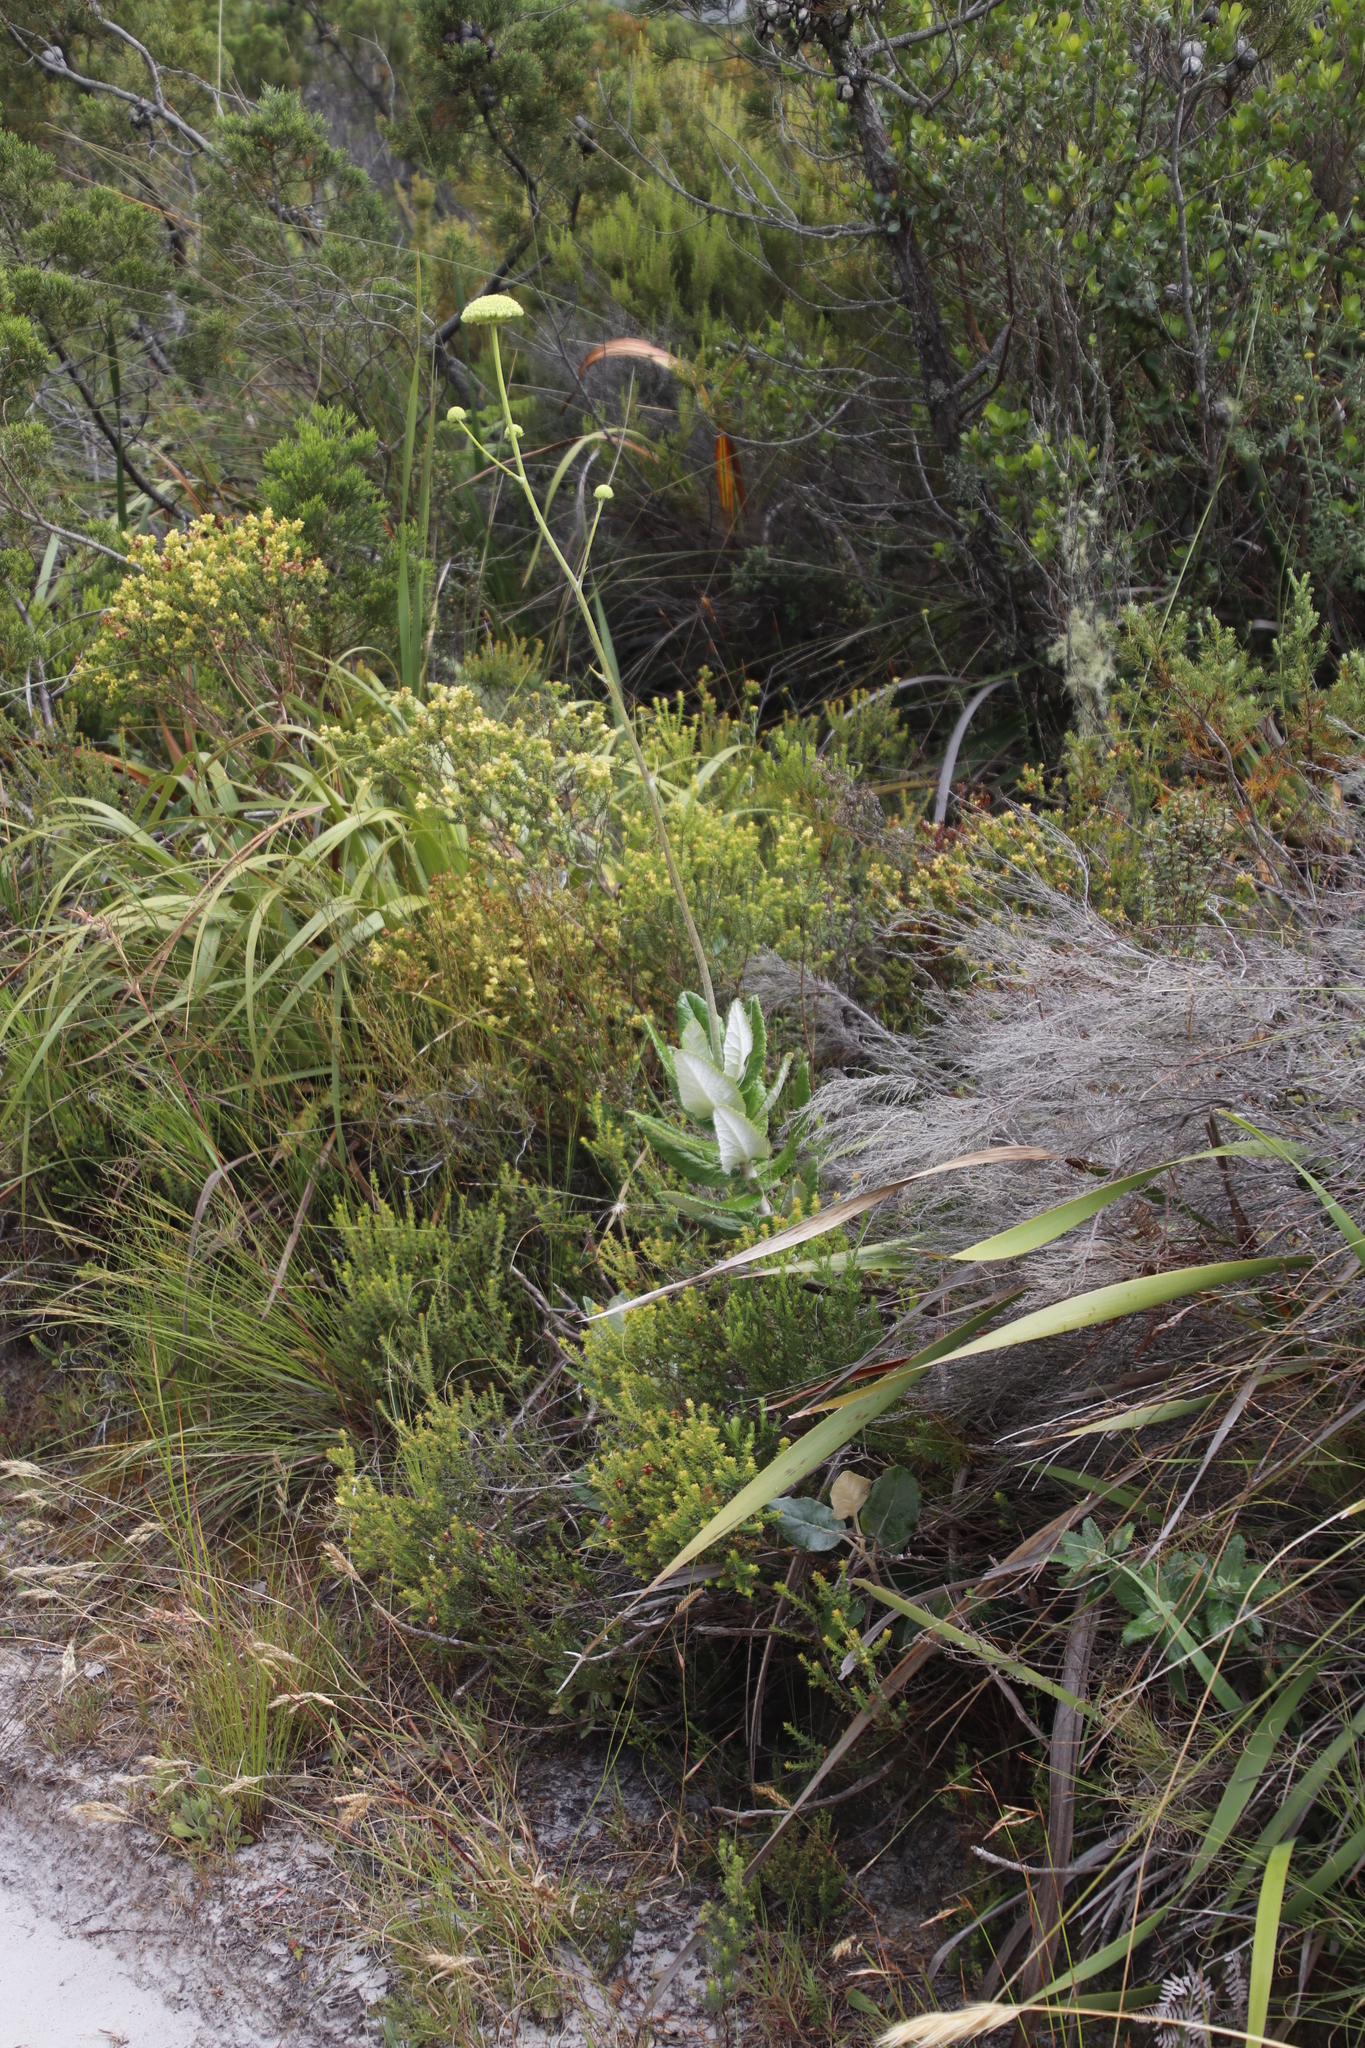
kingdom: Plantae
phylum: Tracheophyta
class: Magnoliopsida
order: Apiales
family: Apiaceae
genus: Hermas
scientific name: Hermas villosa
